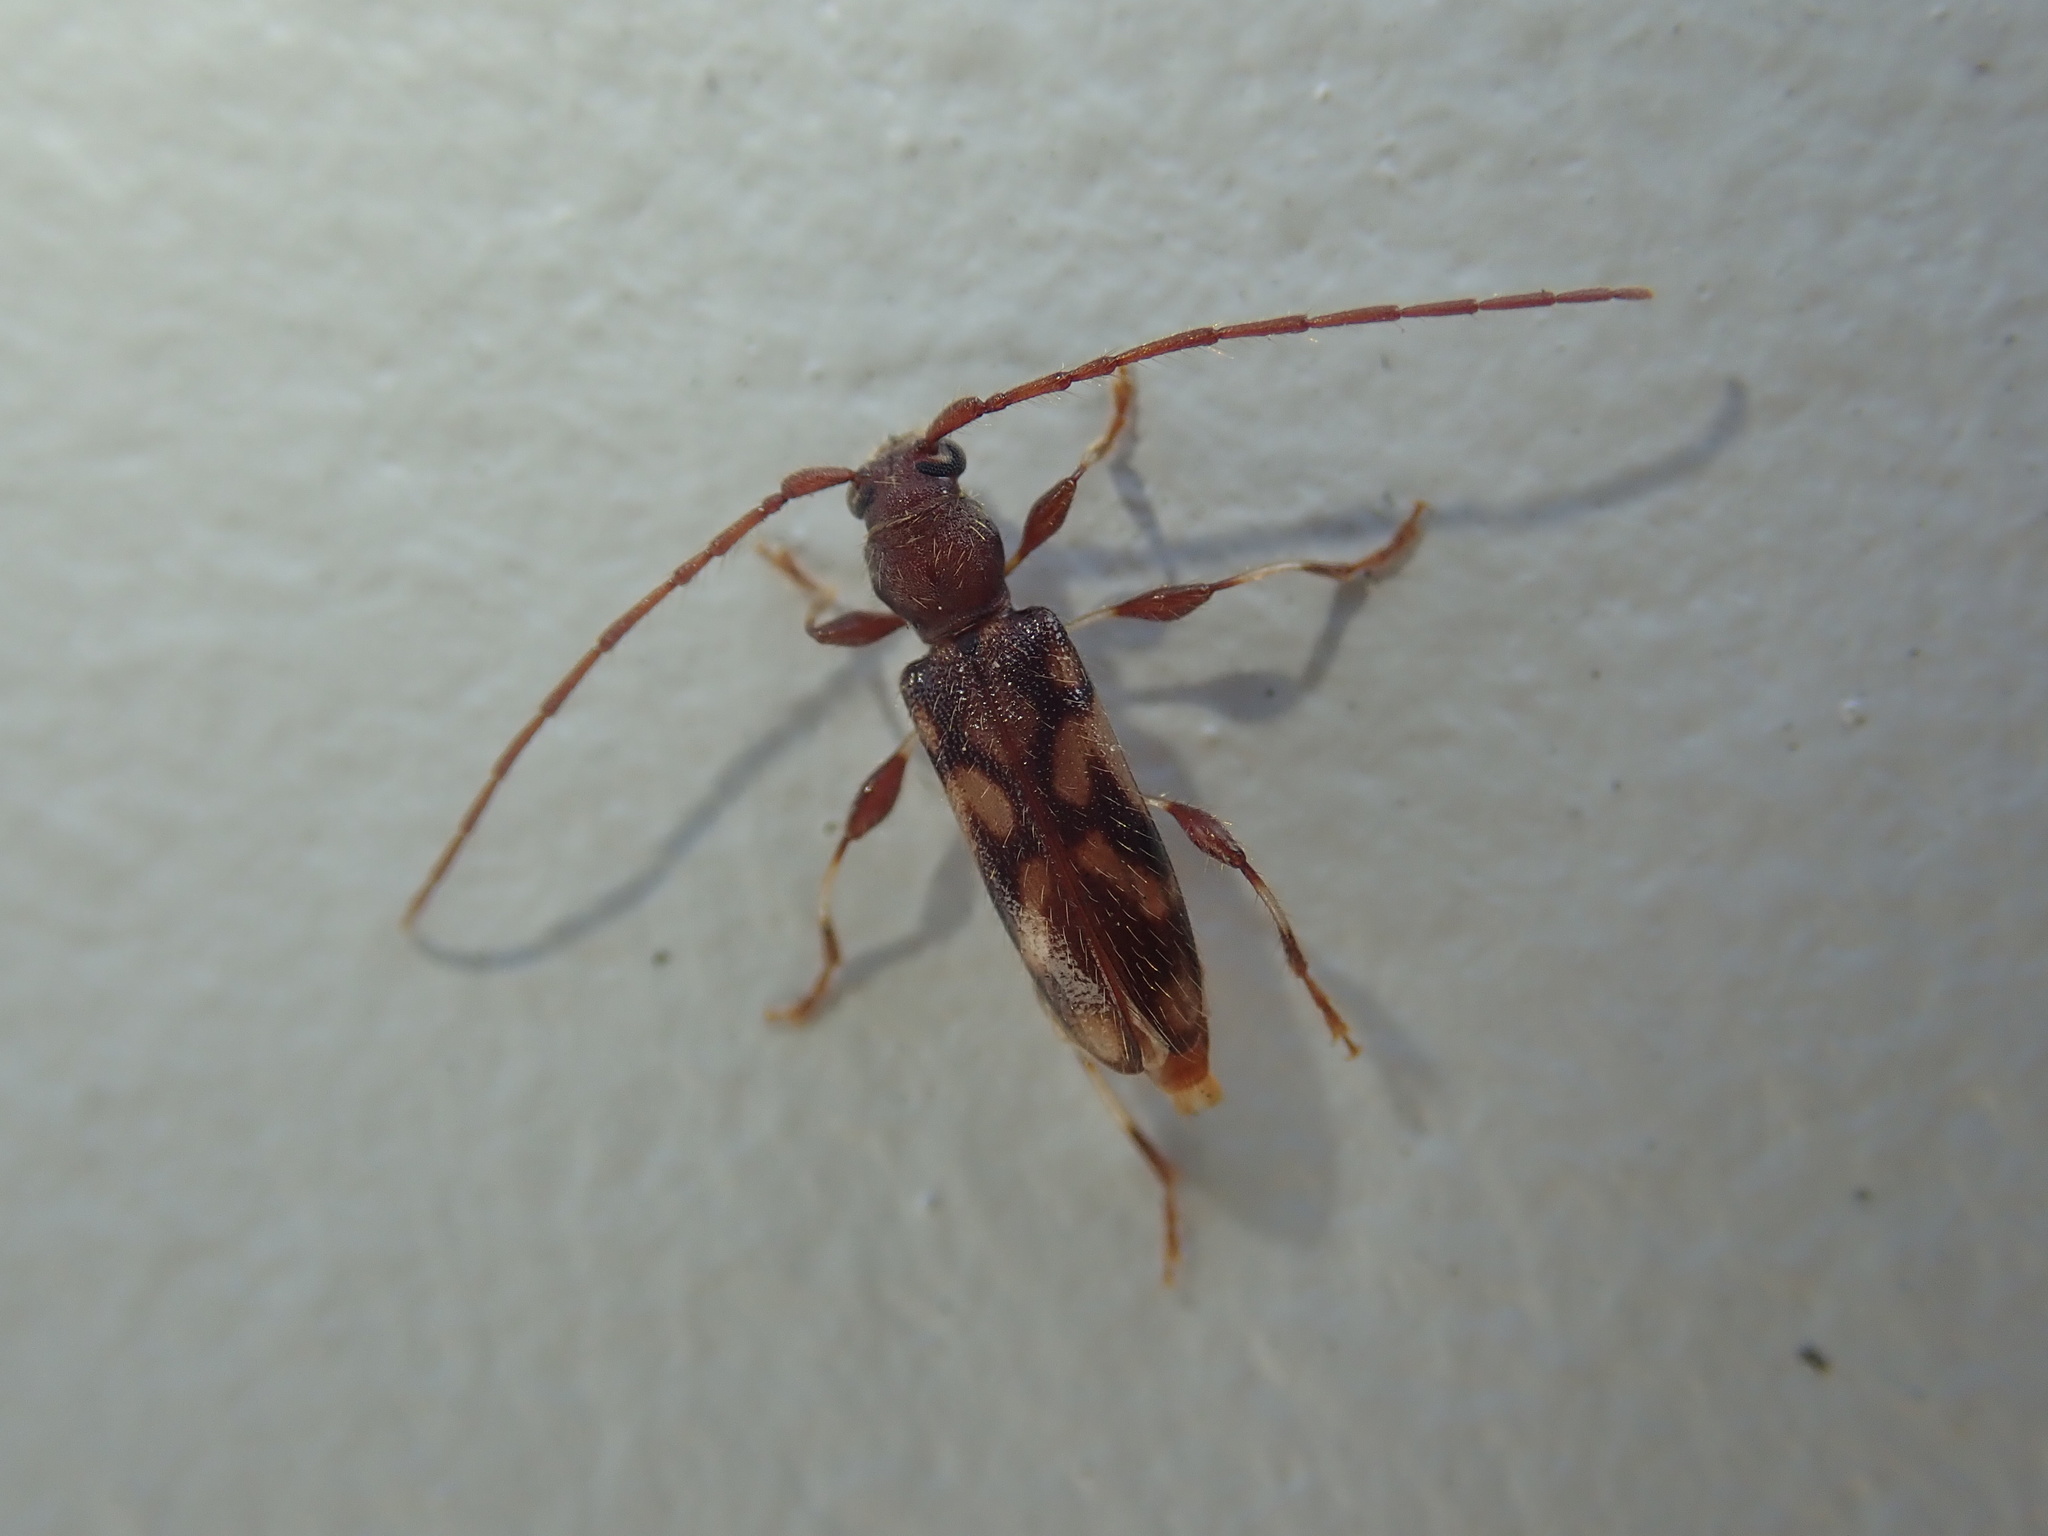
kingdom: Animalia
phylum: Arthropoda
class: Insecta
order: Coleoptera
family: Cerambycidae
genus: Bethelium
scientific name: Bethelium signiferum
